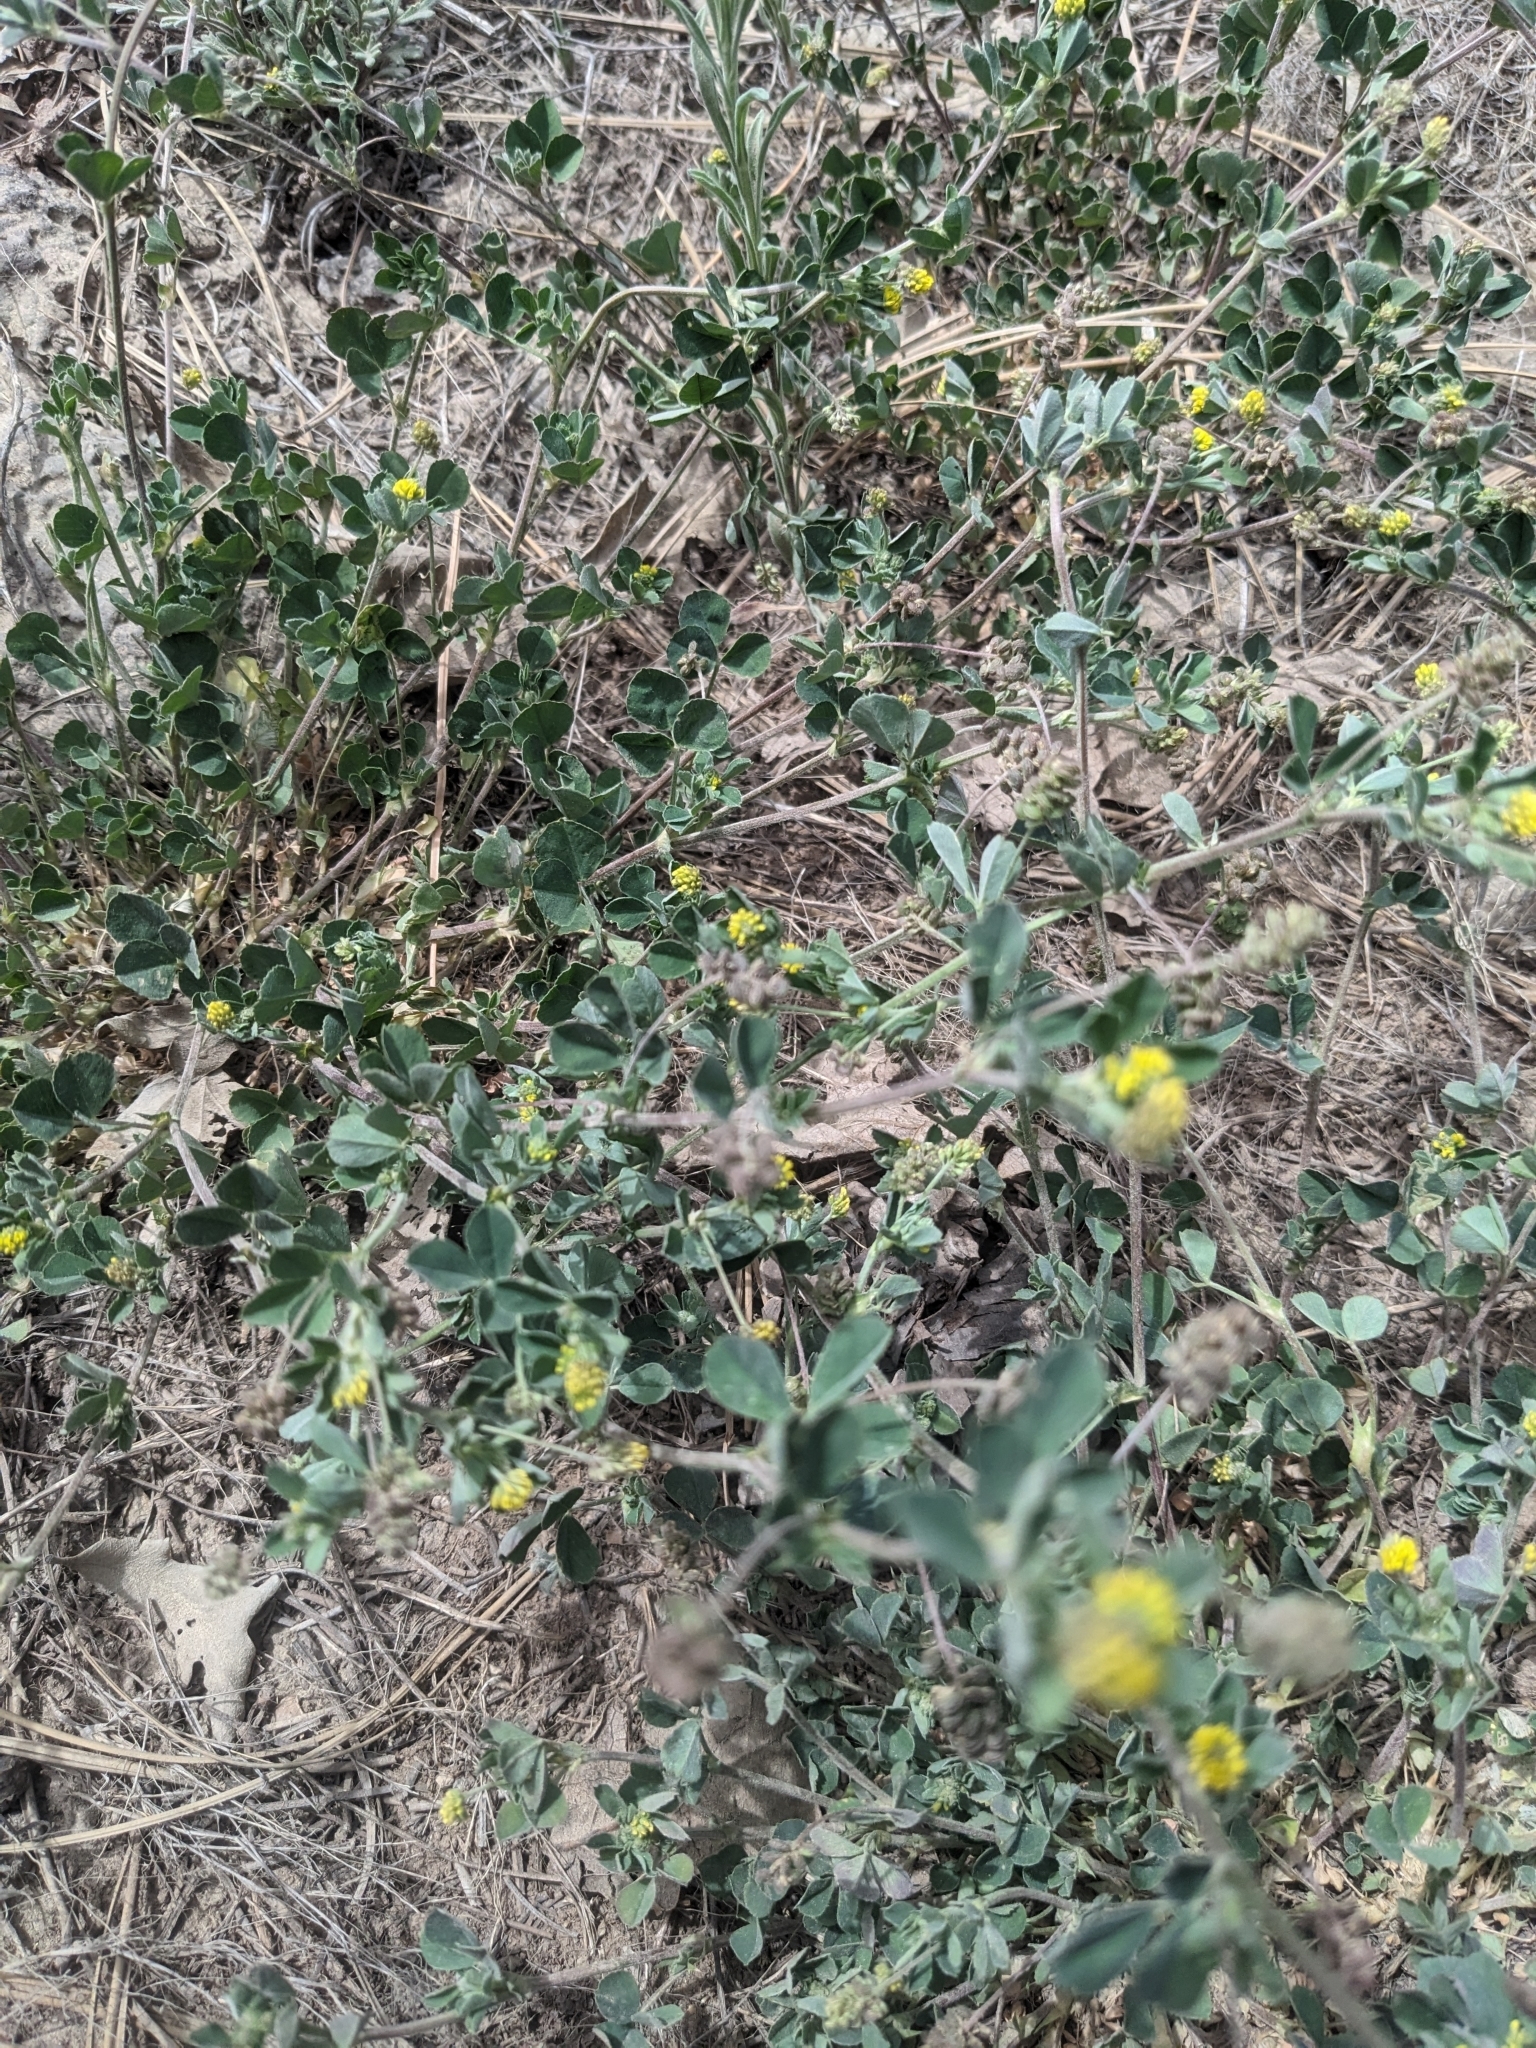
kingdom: Plantae
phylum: Tracheophyta
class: Magnoliopsida
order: Fabales
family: Fabaceae
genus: Medicago
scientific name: Medicago lupulina
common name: Black medick
